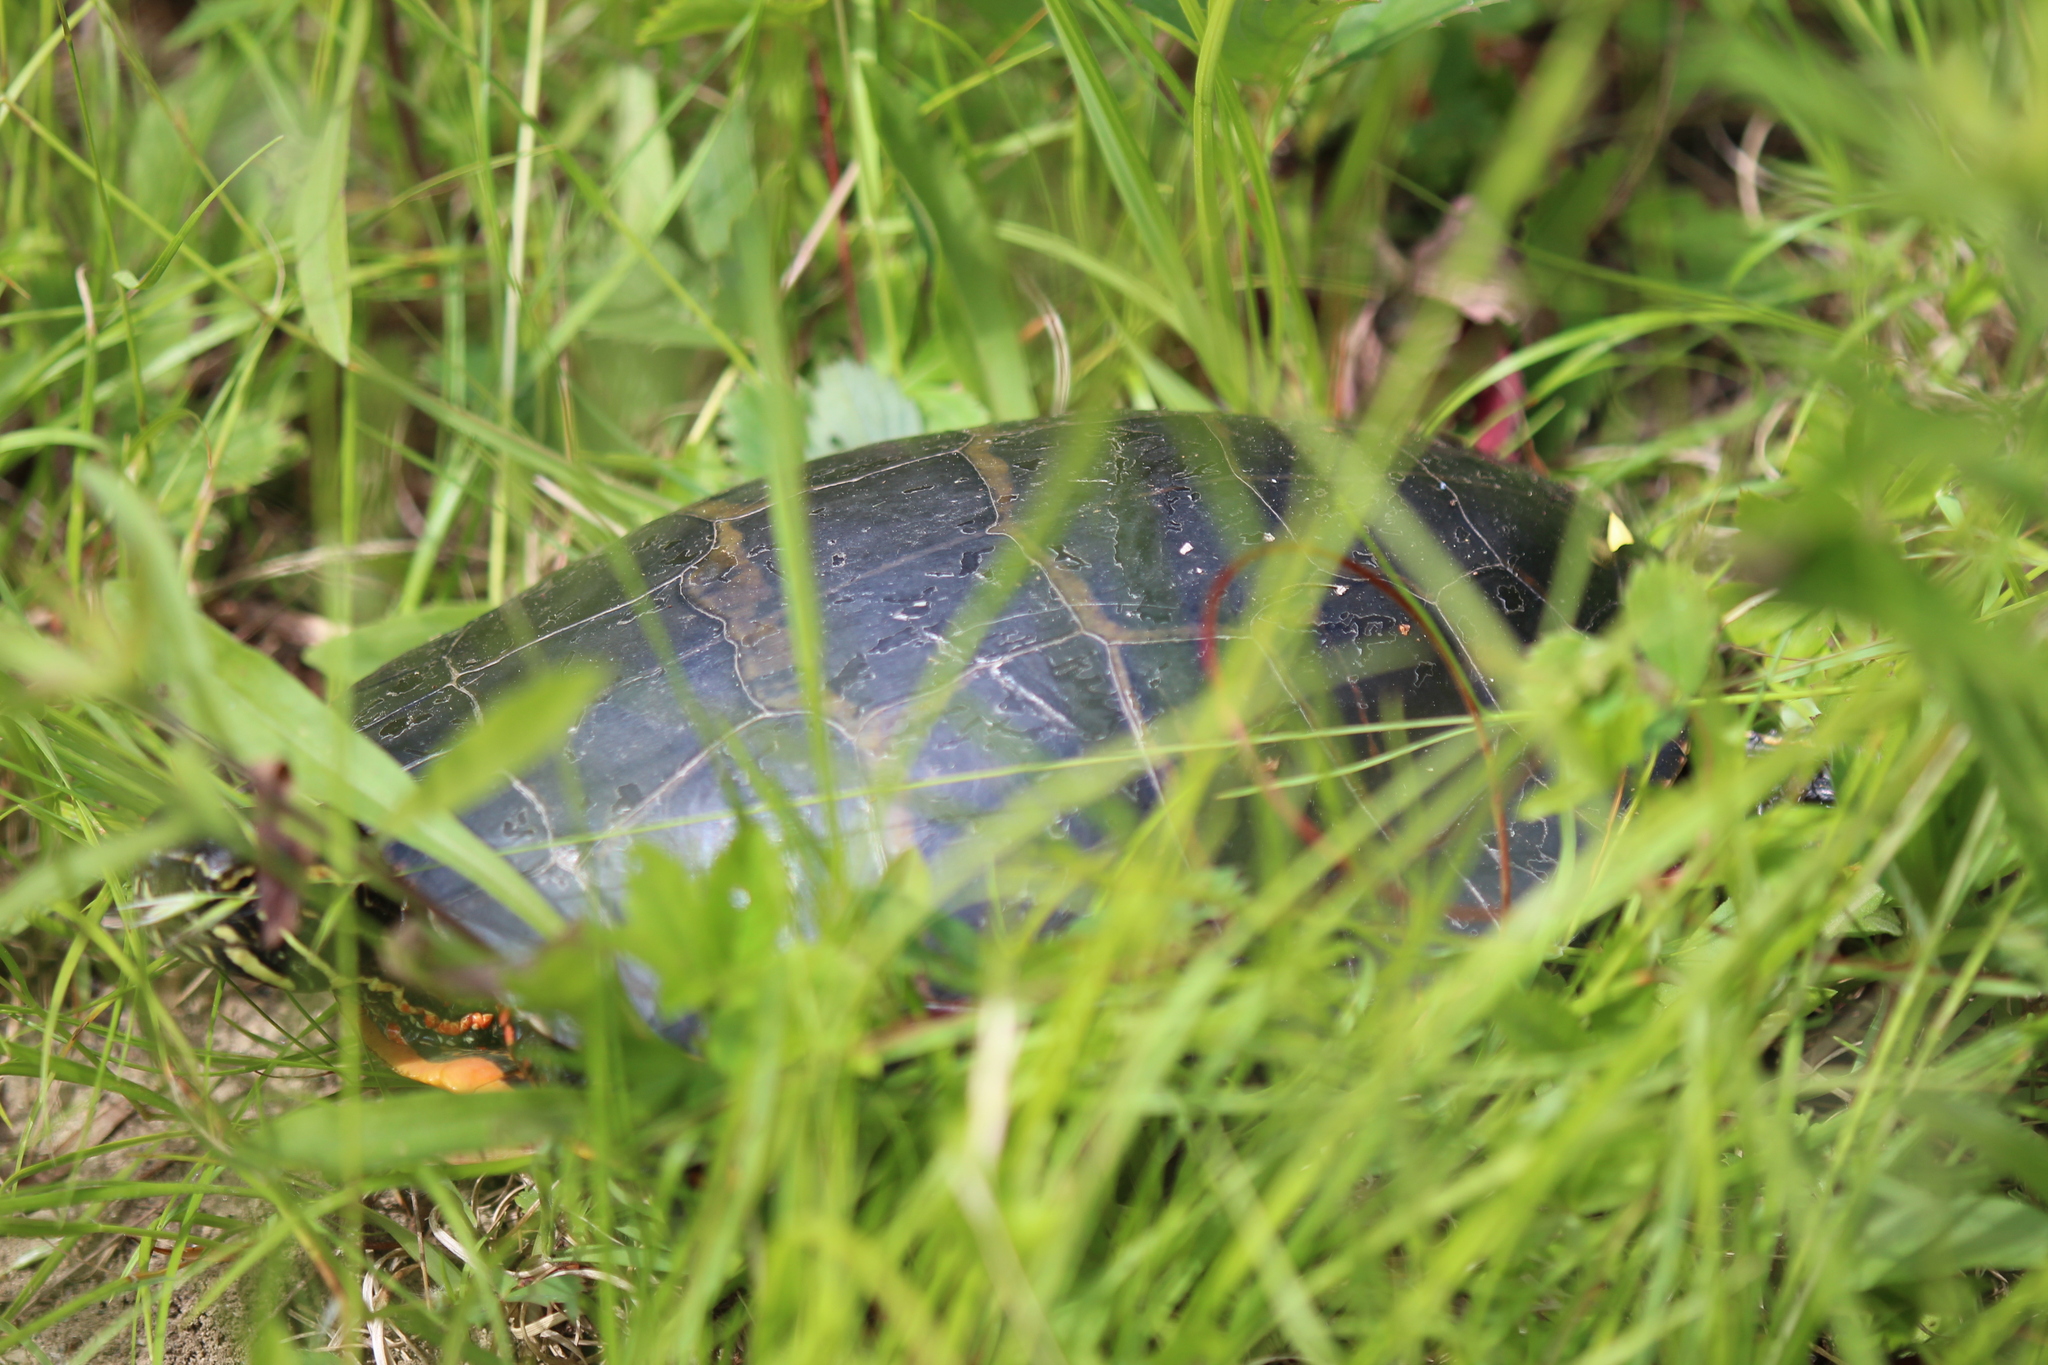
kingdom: Animalia
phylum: Chordata
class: Testudines
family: Emydidae
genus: Chrysemys
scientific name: Chrysemys picta
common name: Painted turtle
